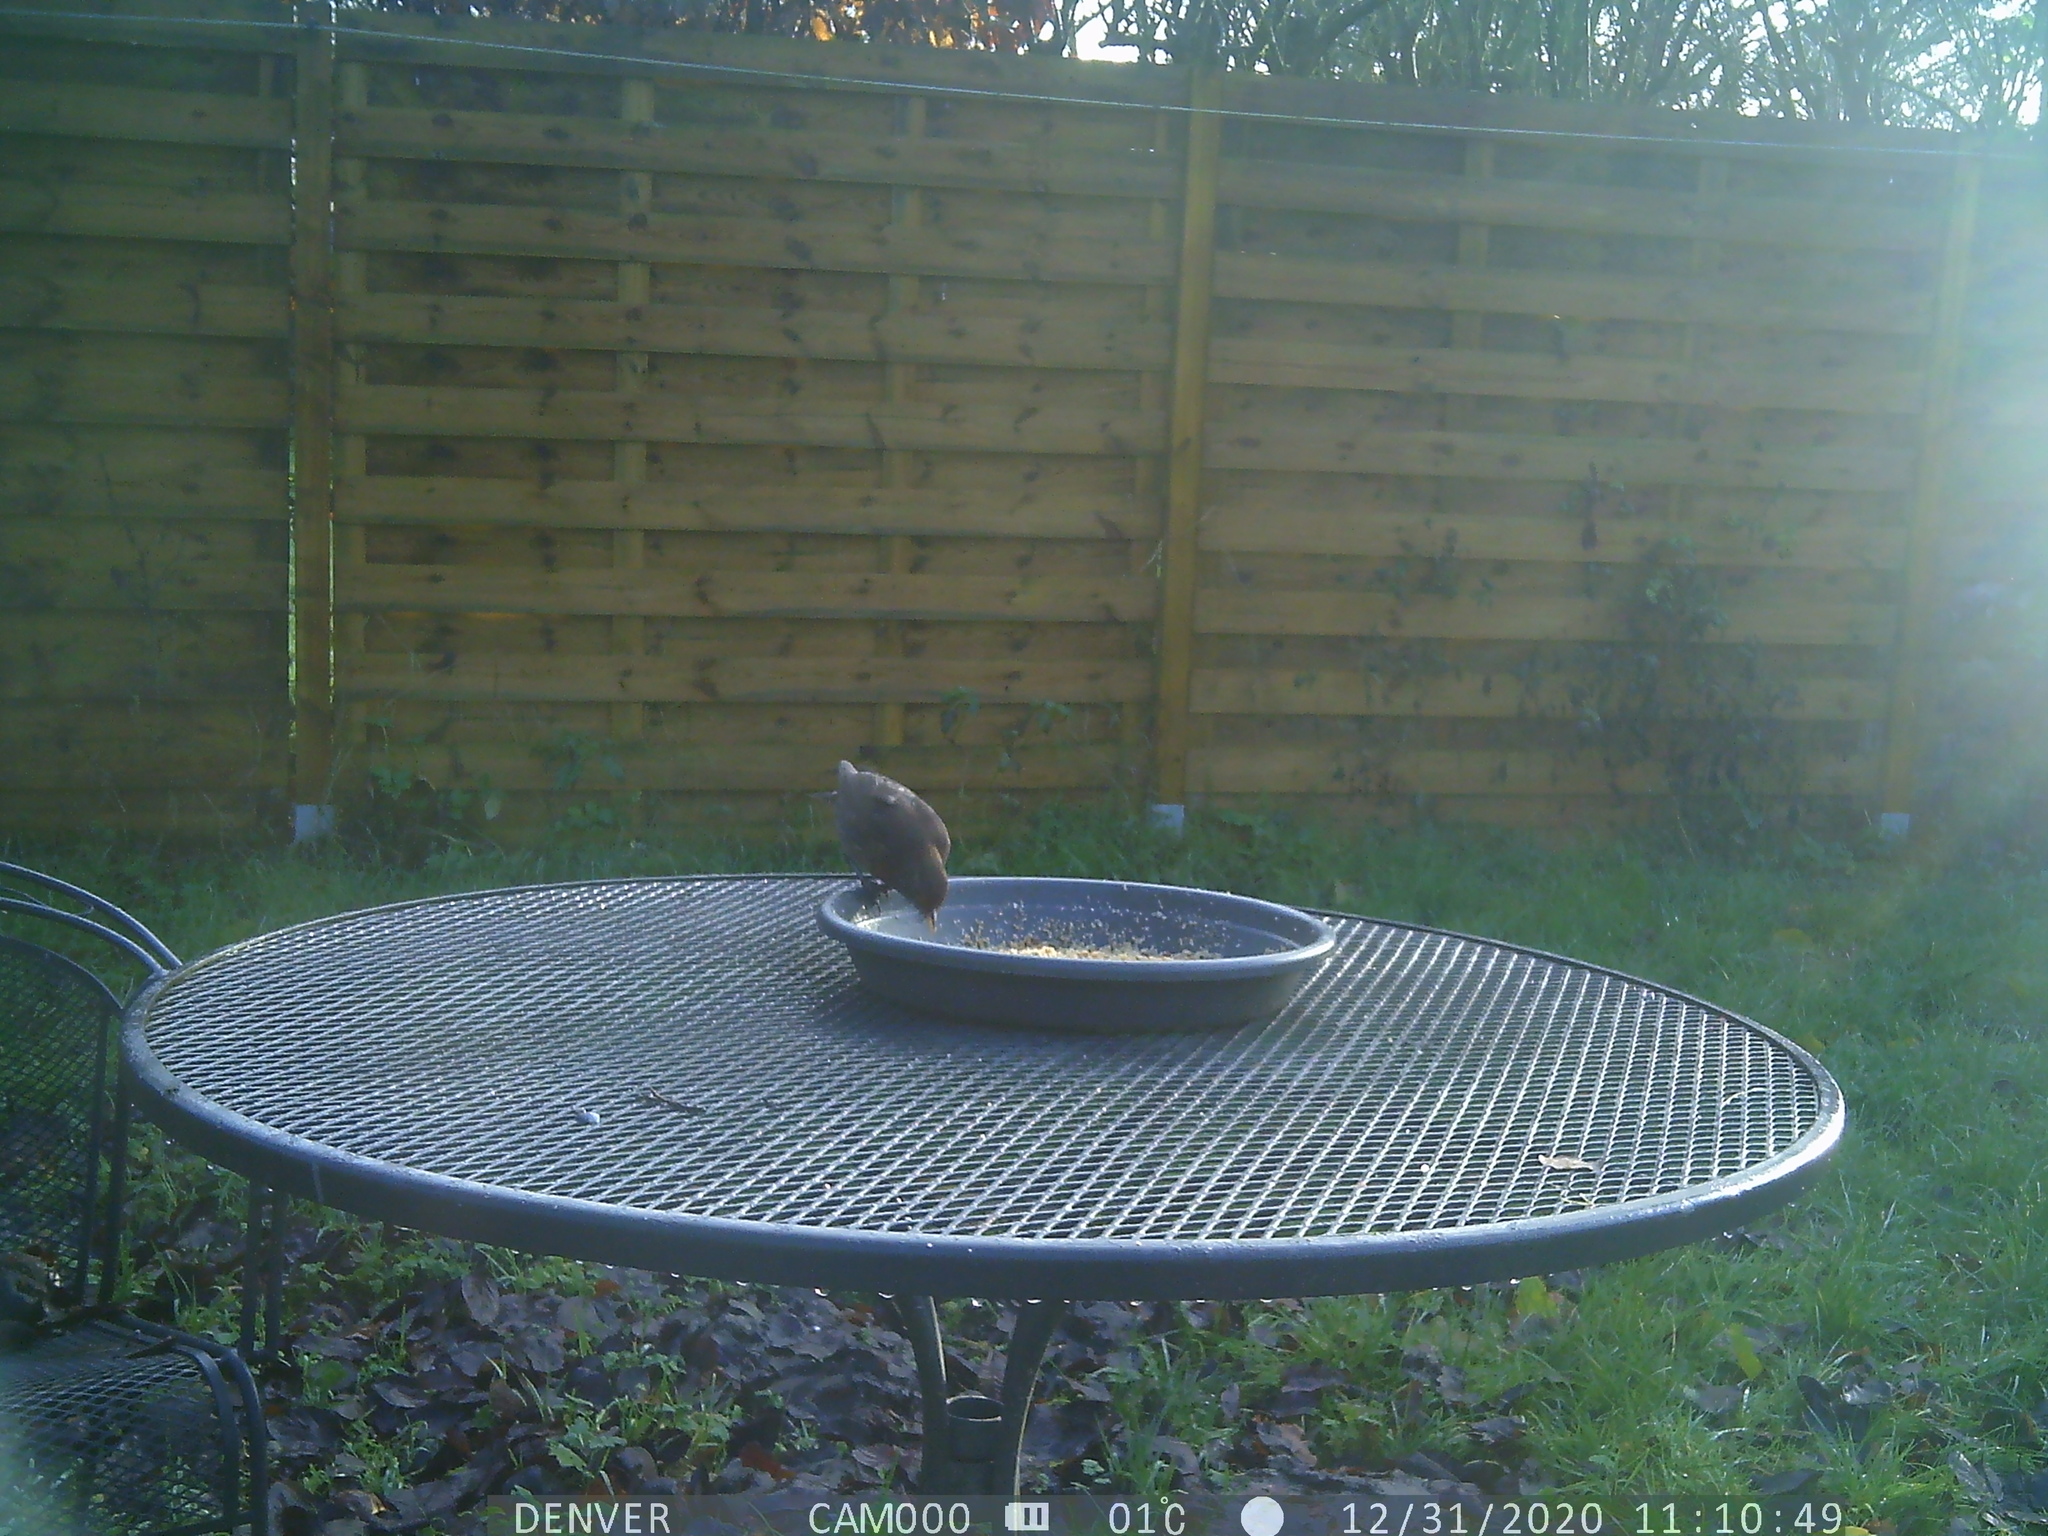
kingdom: Animalia
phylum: Chordata
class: Aves
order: Passeriformes
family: Turdidae
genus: Turdus
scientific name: Turdus merula
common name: Common blackbird
